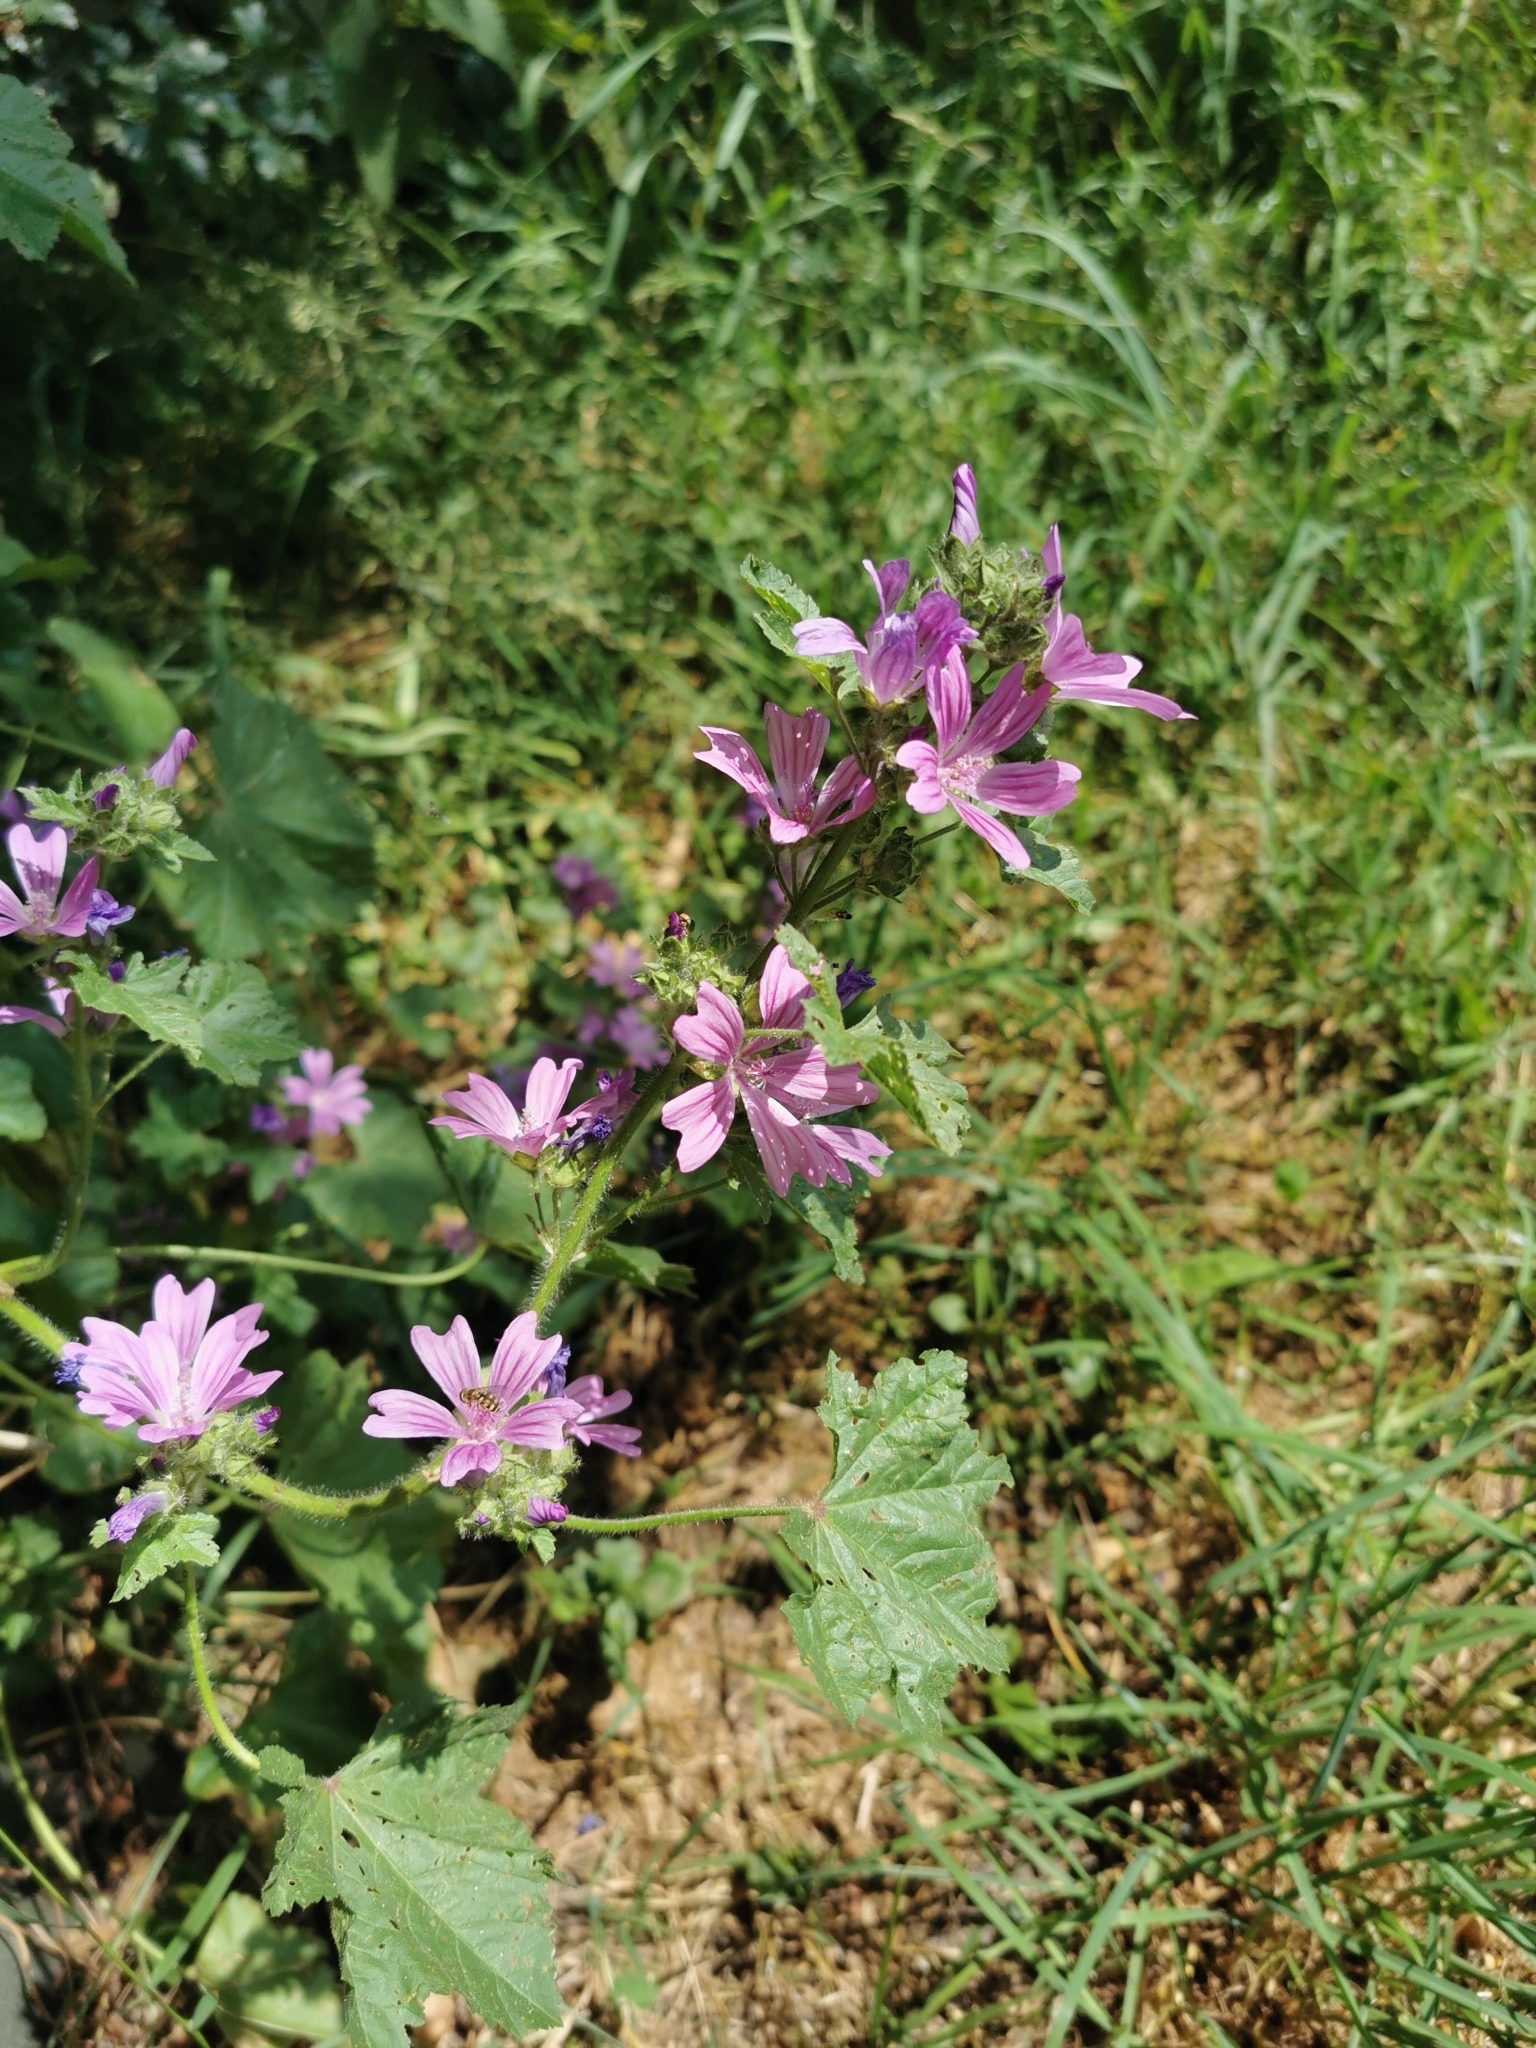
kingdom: Plantae
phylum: Tracheophyta
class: Magnoliopsida
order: Malvales
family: Malvaceae
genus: Malva
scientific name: Malva sylvestris
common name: Common mallow
